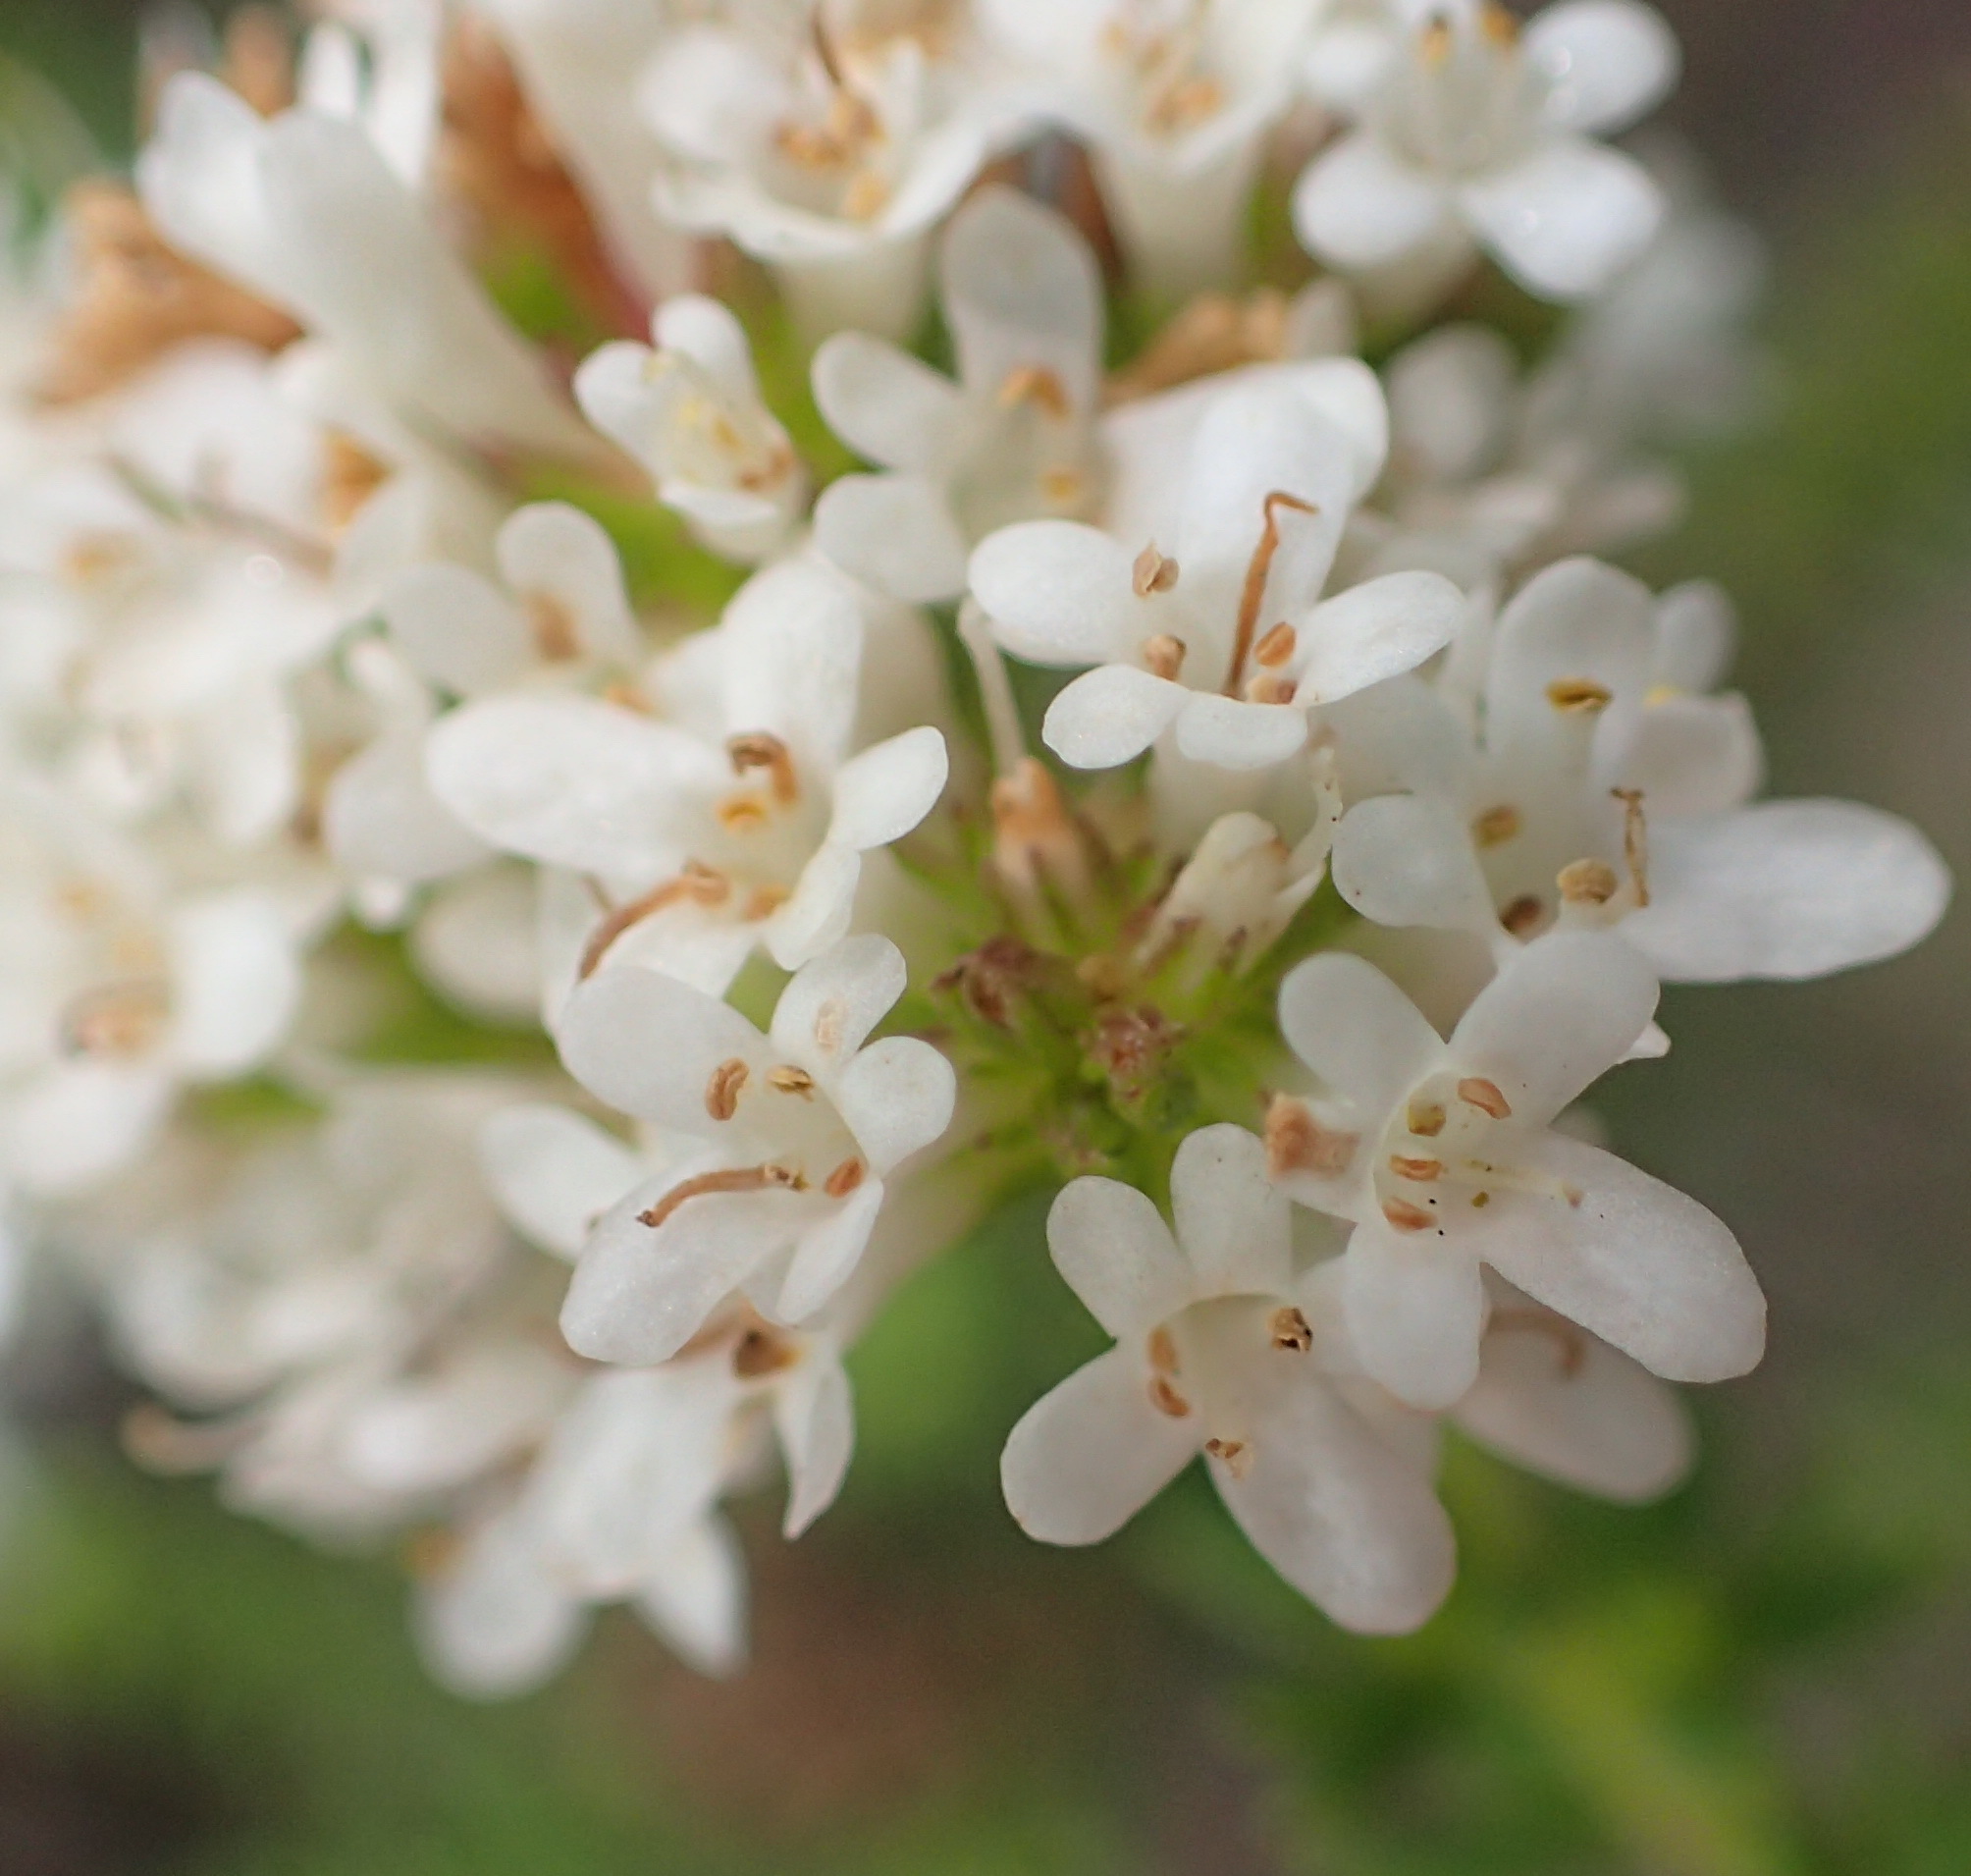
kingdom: Plantae
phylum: Tracheophyta
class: Magnoliopsida
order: Lamiales
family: Scrophulariaceae
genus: Selago
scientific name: Selago glomerata
